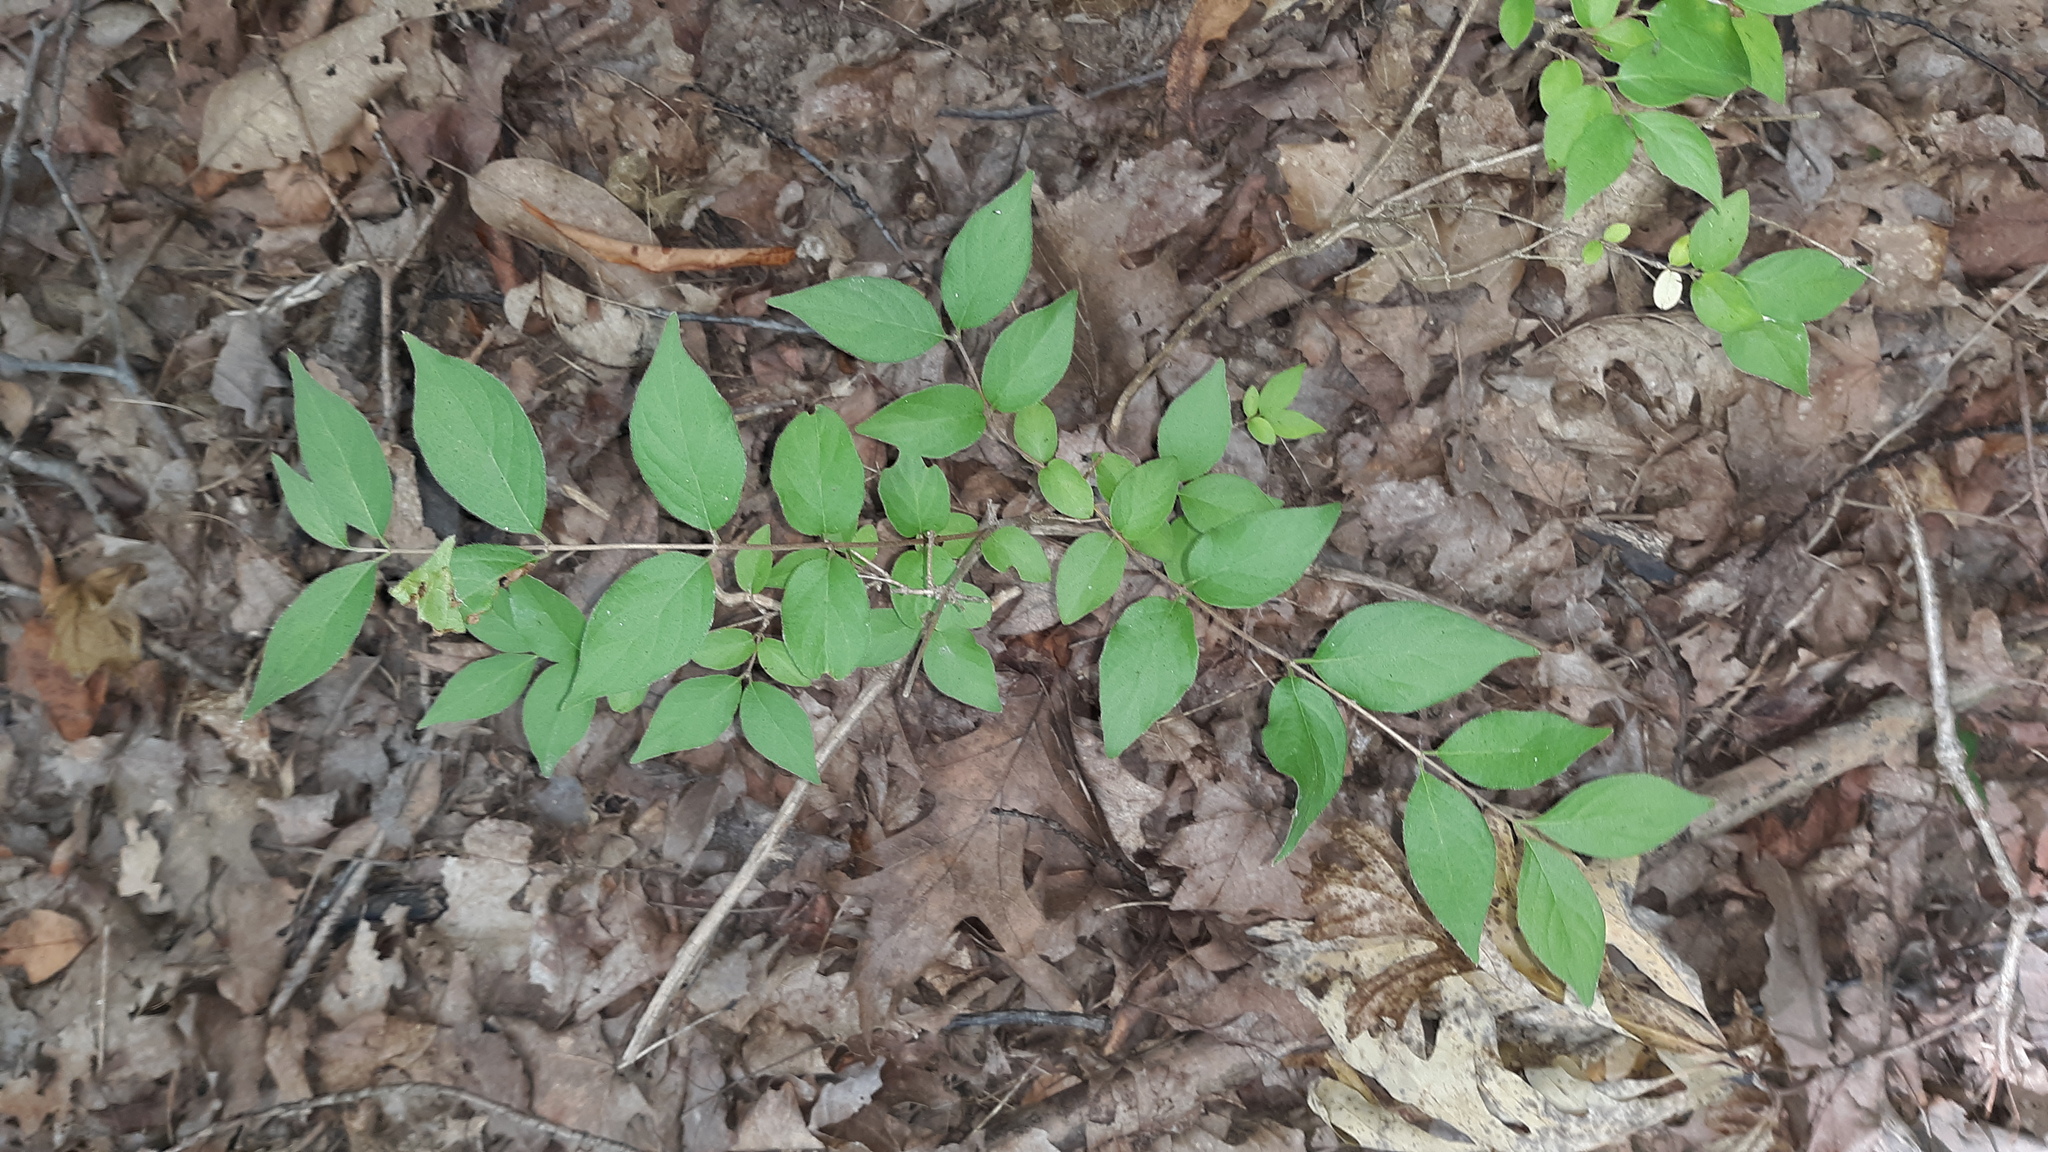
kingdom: Plantae
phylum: Tracheophyta
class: Magnoliopsida
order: Dipsacales
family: Caprifoliaceae
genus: Lonicera
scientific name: Lonicera maackii
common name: Amur honeysuckle
